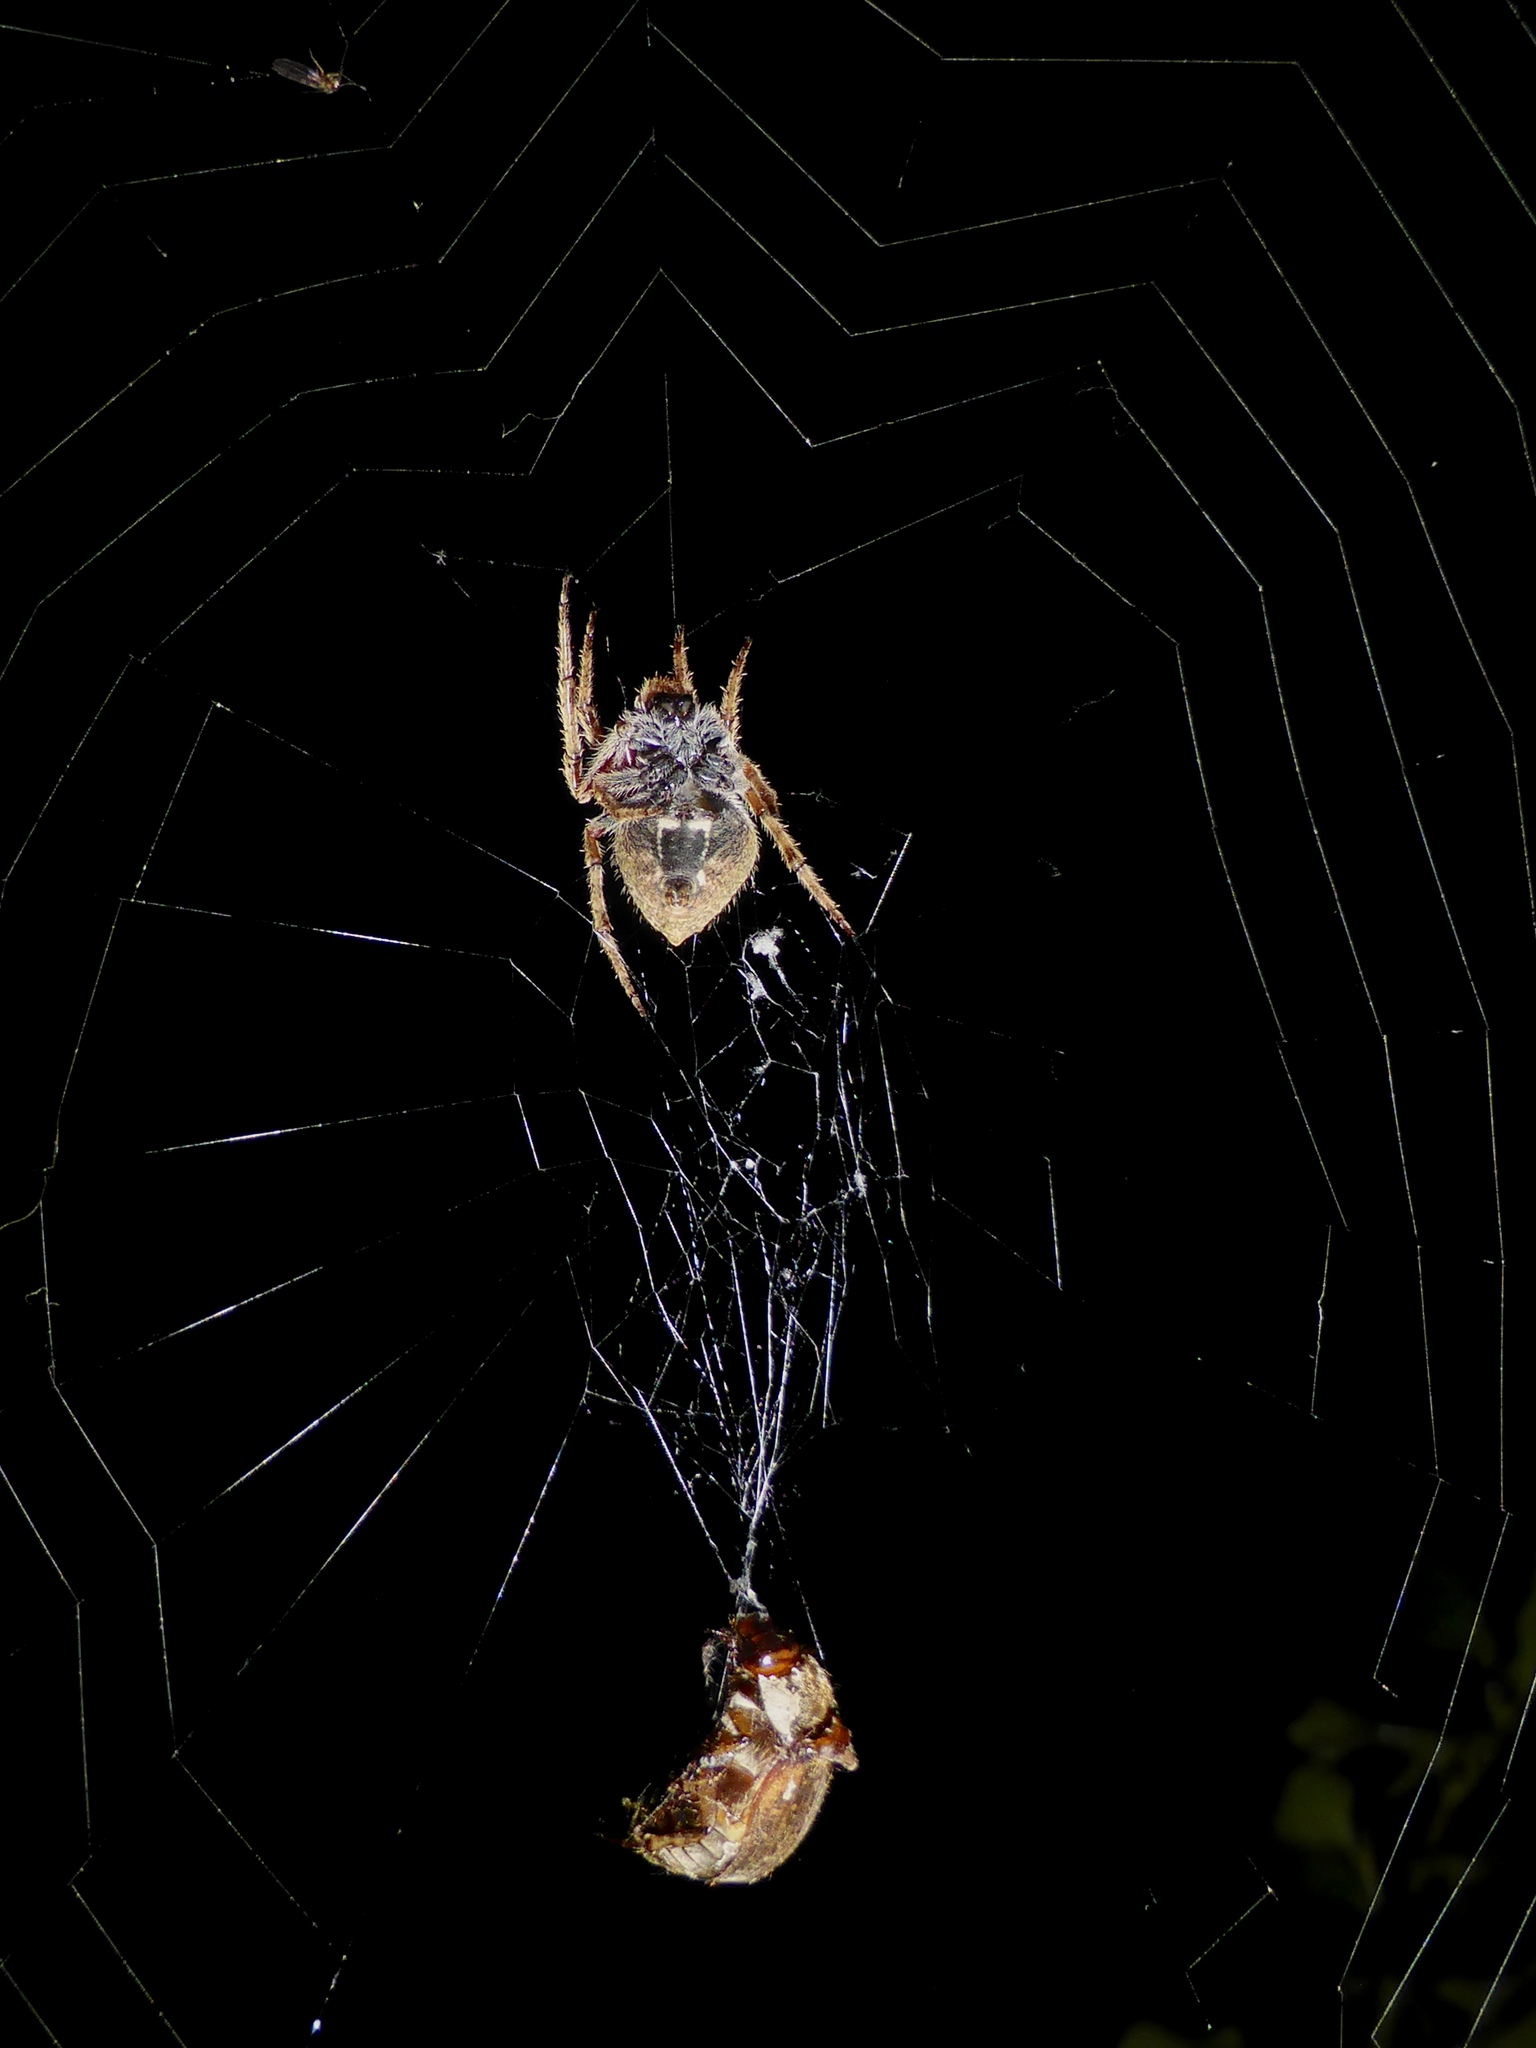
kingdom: Animalia
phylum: Arthropoda
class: Arachnida
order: Araneae
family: Araneidae
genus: Eriophora
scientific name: Eriophora pustulosa
